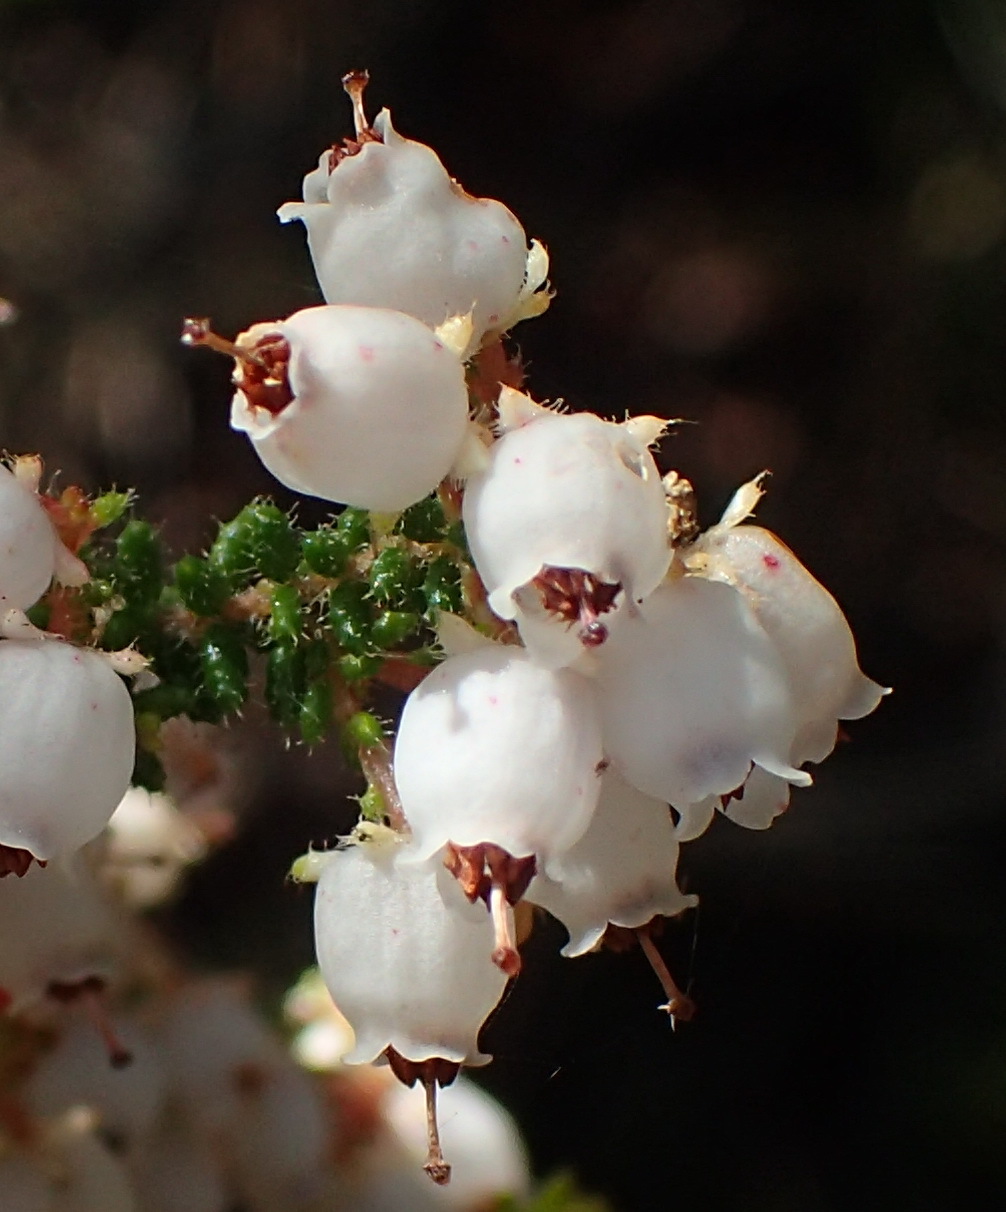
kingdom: Plantae
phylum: Tracheophyta
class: Magnoliopsida
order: Ericales
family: Ericaceae
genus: Erica
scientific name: Erica scabriuscula
